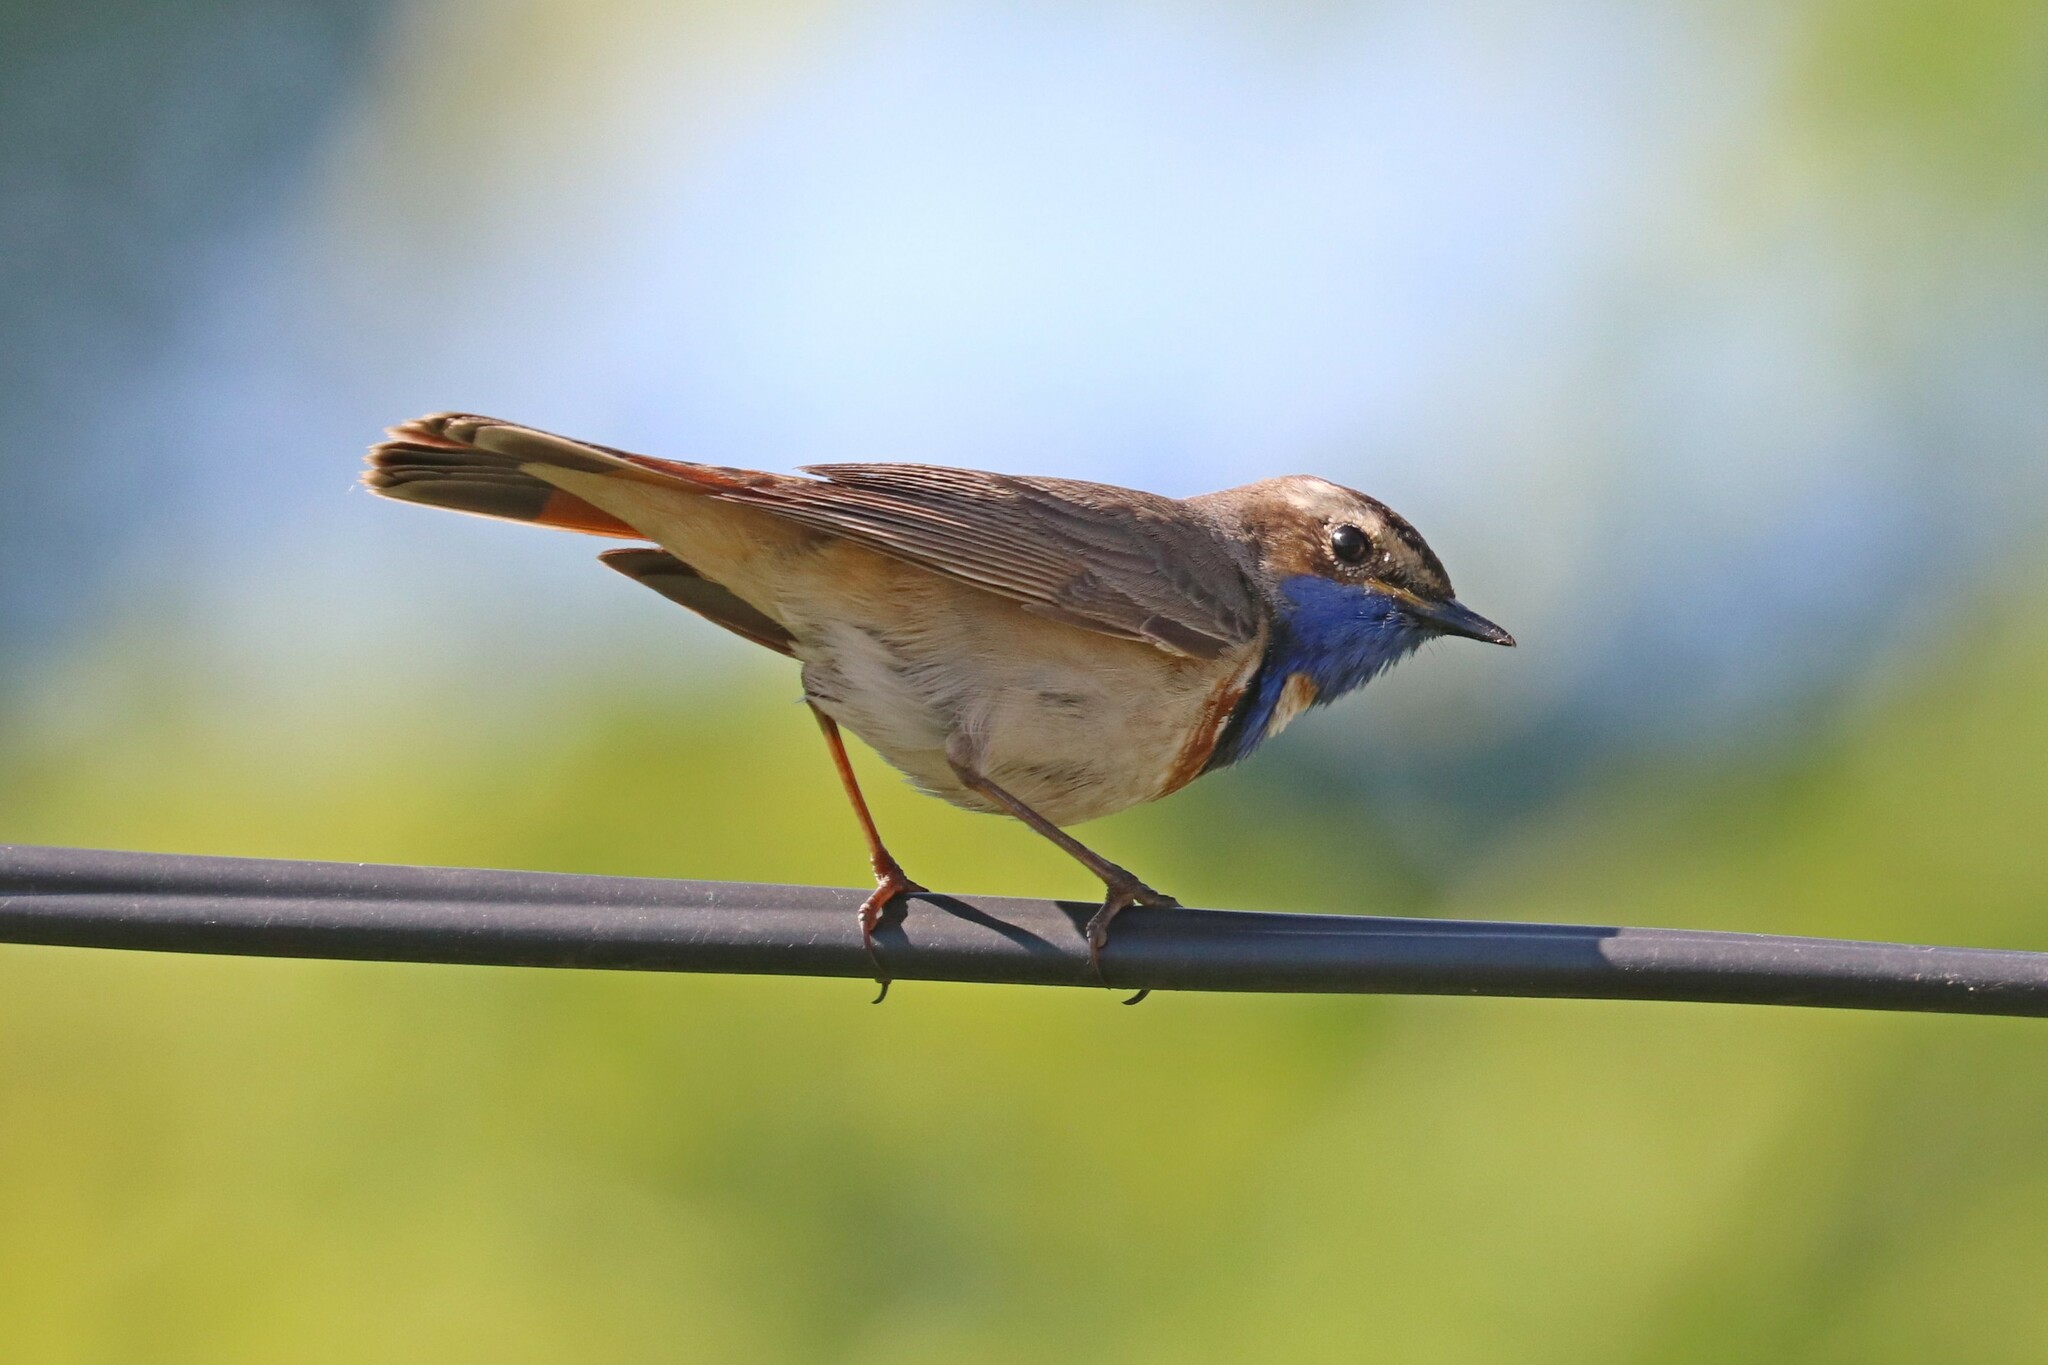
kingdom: Animalia
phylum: Chordata
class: Aves
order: Passeriformes
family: Muscicapidae
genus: Luscinia
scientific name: Luscinia svecica
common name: Bluethroat
